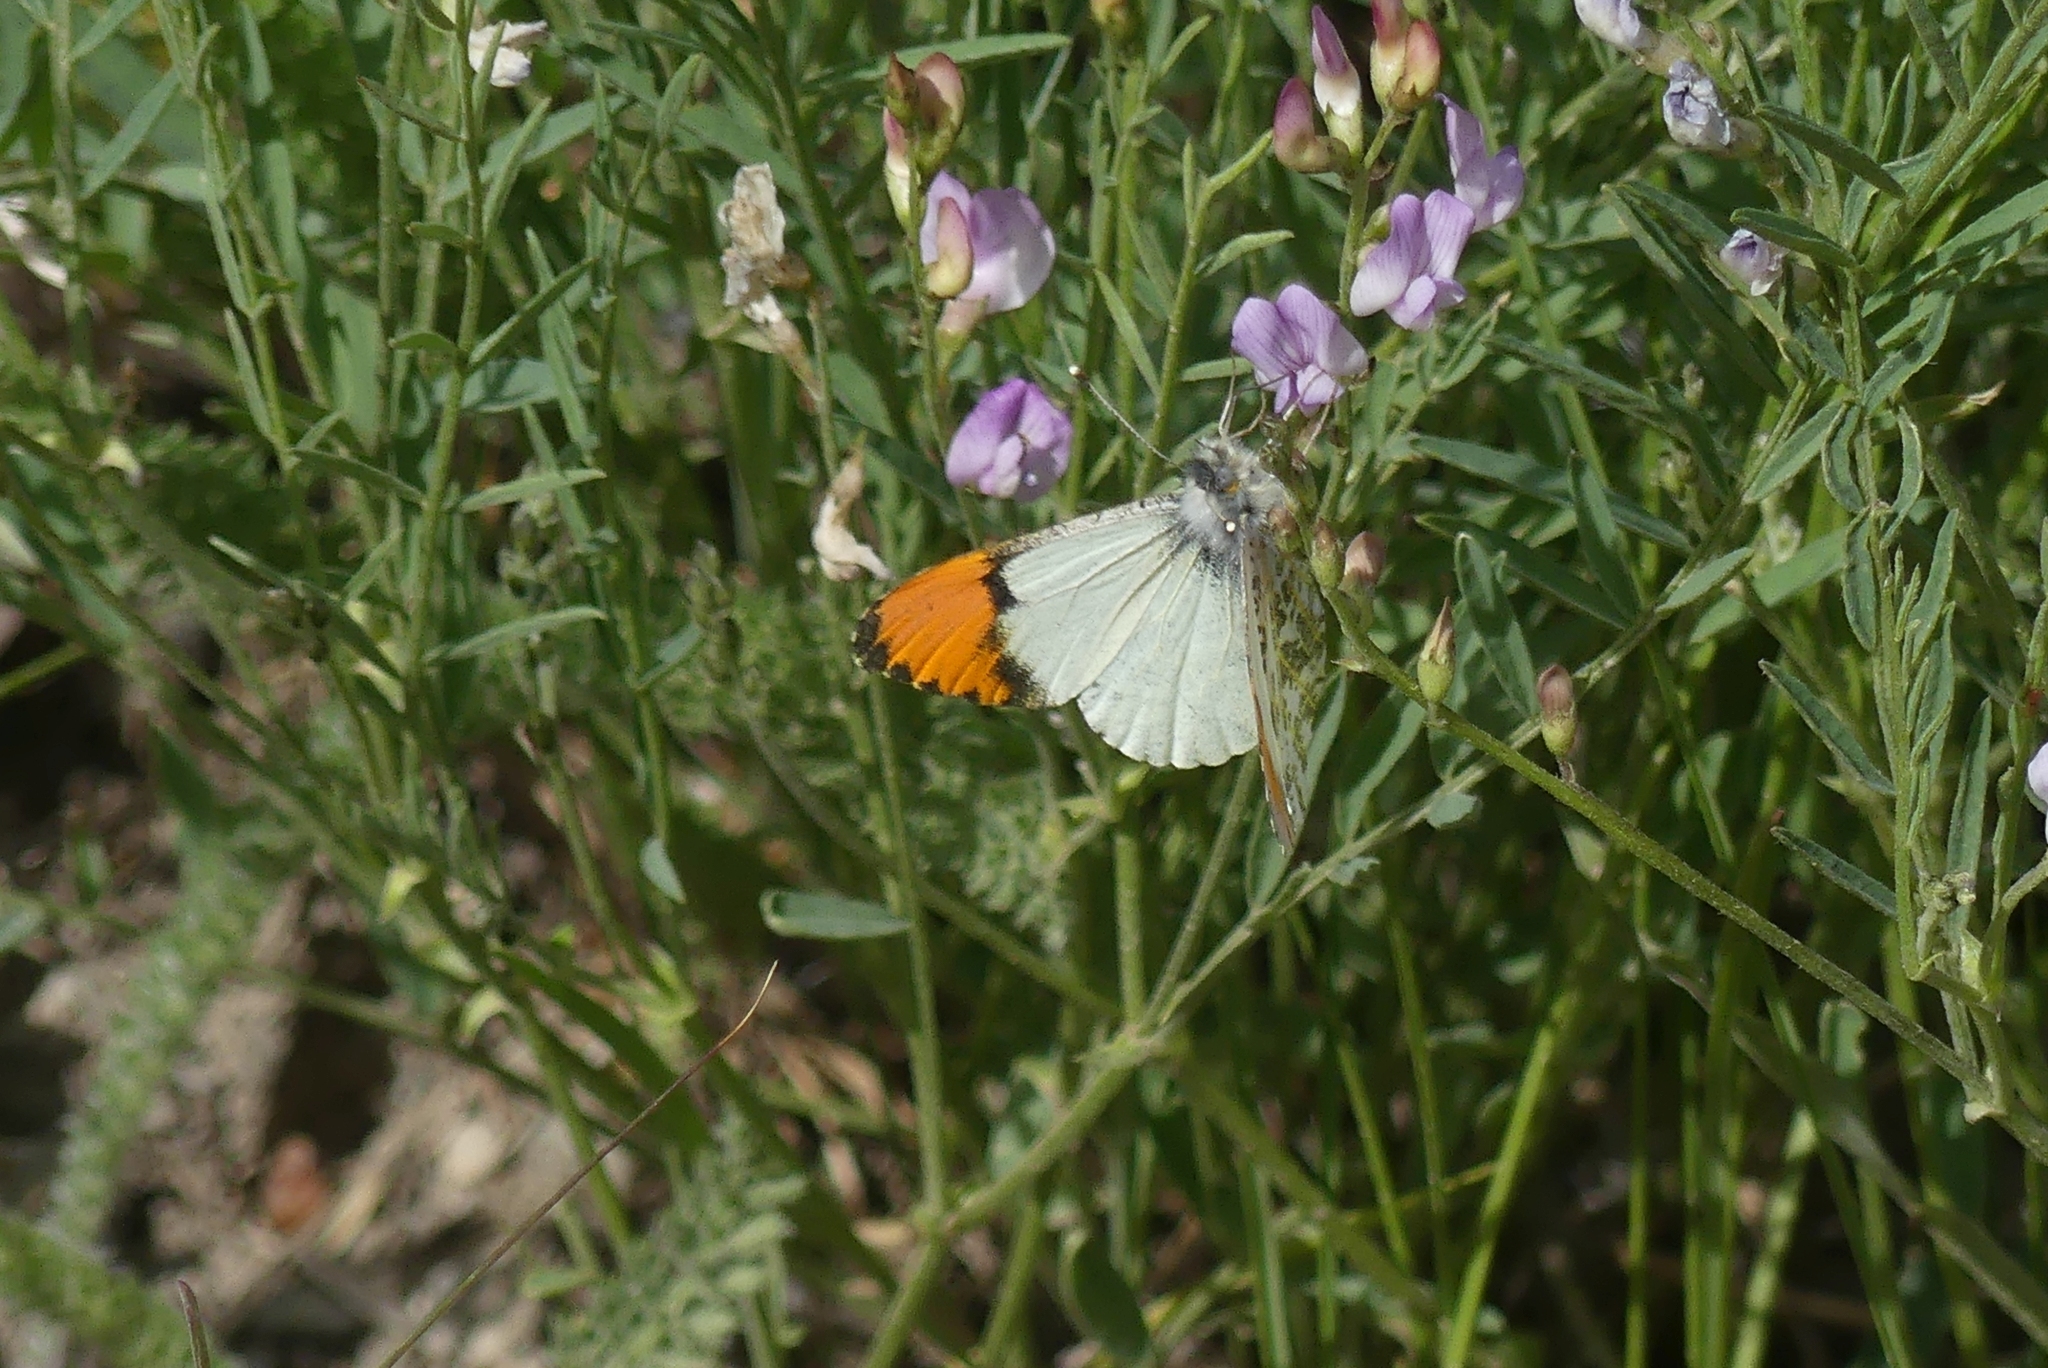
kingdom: Animalia
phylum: Arthropoda
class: Insecta
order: Lepidoptera
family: Pieridae
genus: Anthocharis
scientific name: Anthocharis julia
